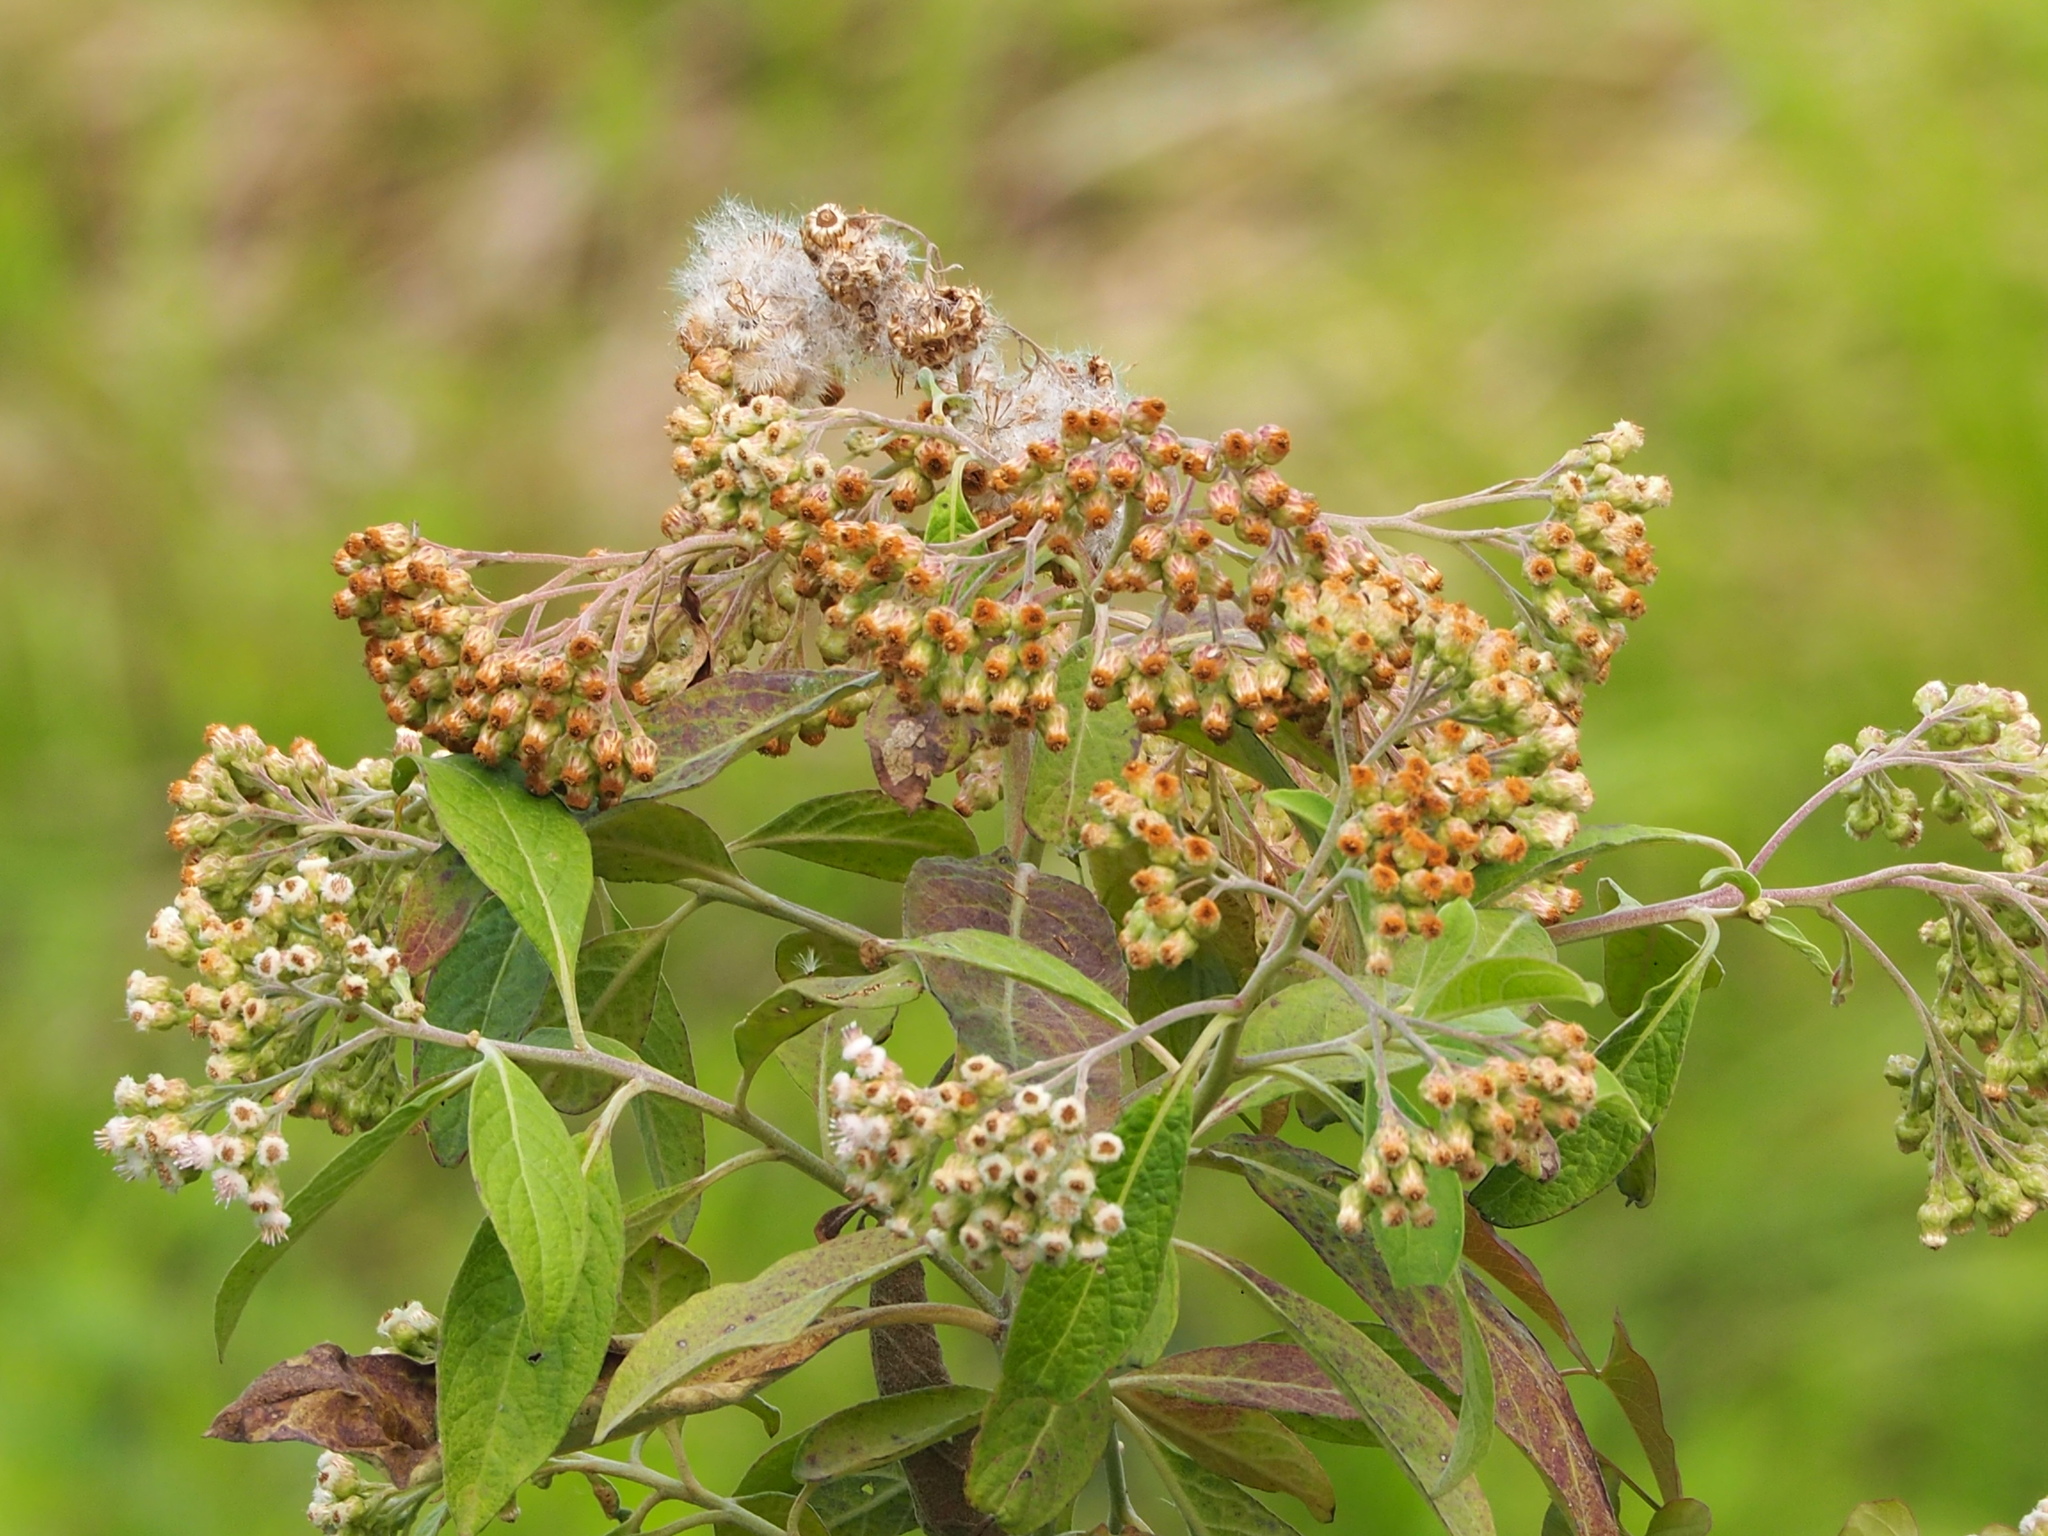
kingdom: Plantae
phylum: Tracheophyta
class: Magnoliopsida
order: Asterales
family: Asteraceae
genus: Pluchea
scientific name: Pluchea carolinensis
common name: Marsh fleabane
